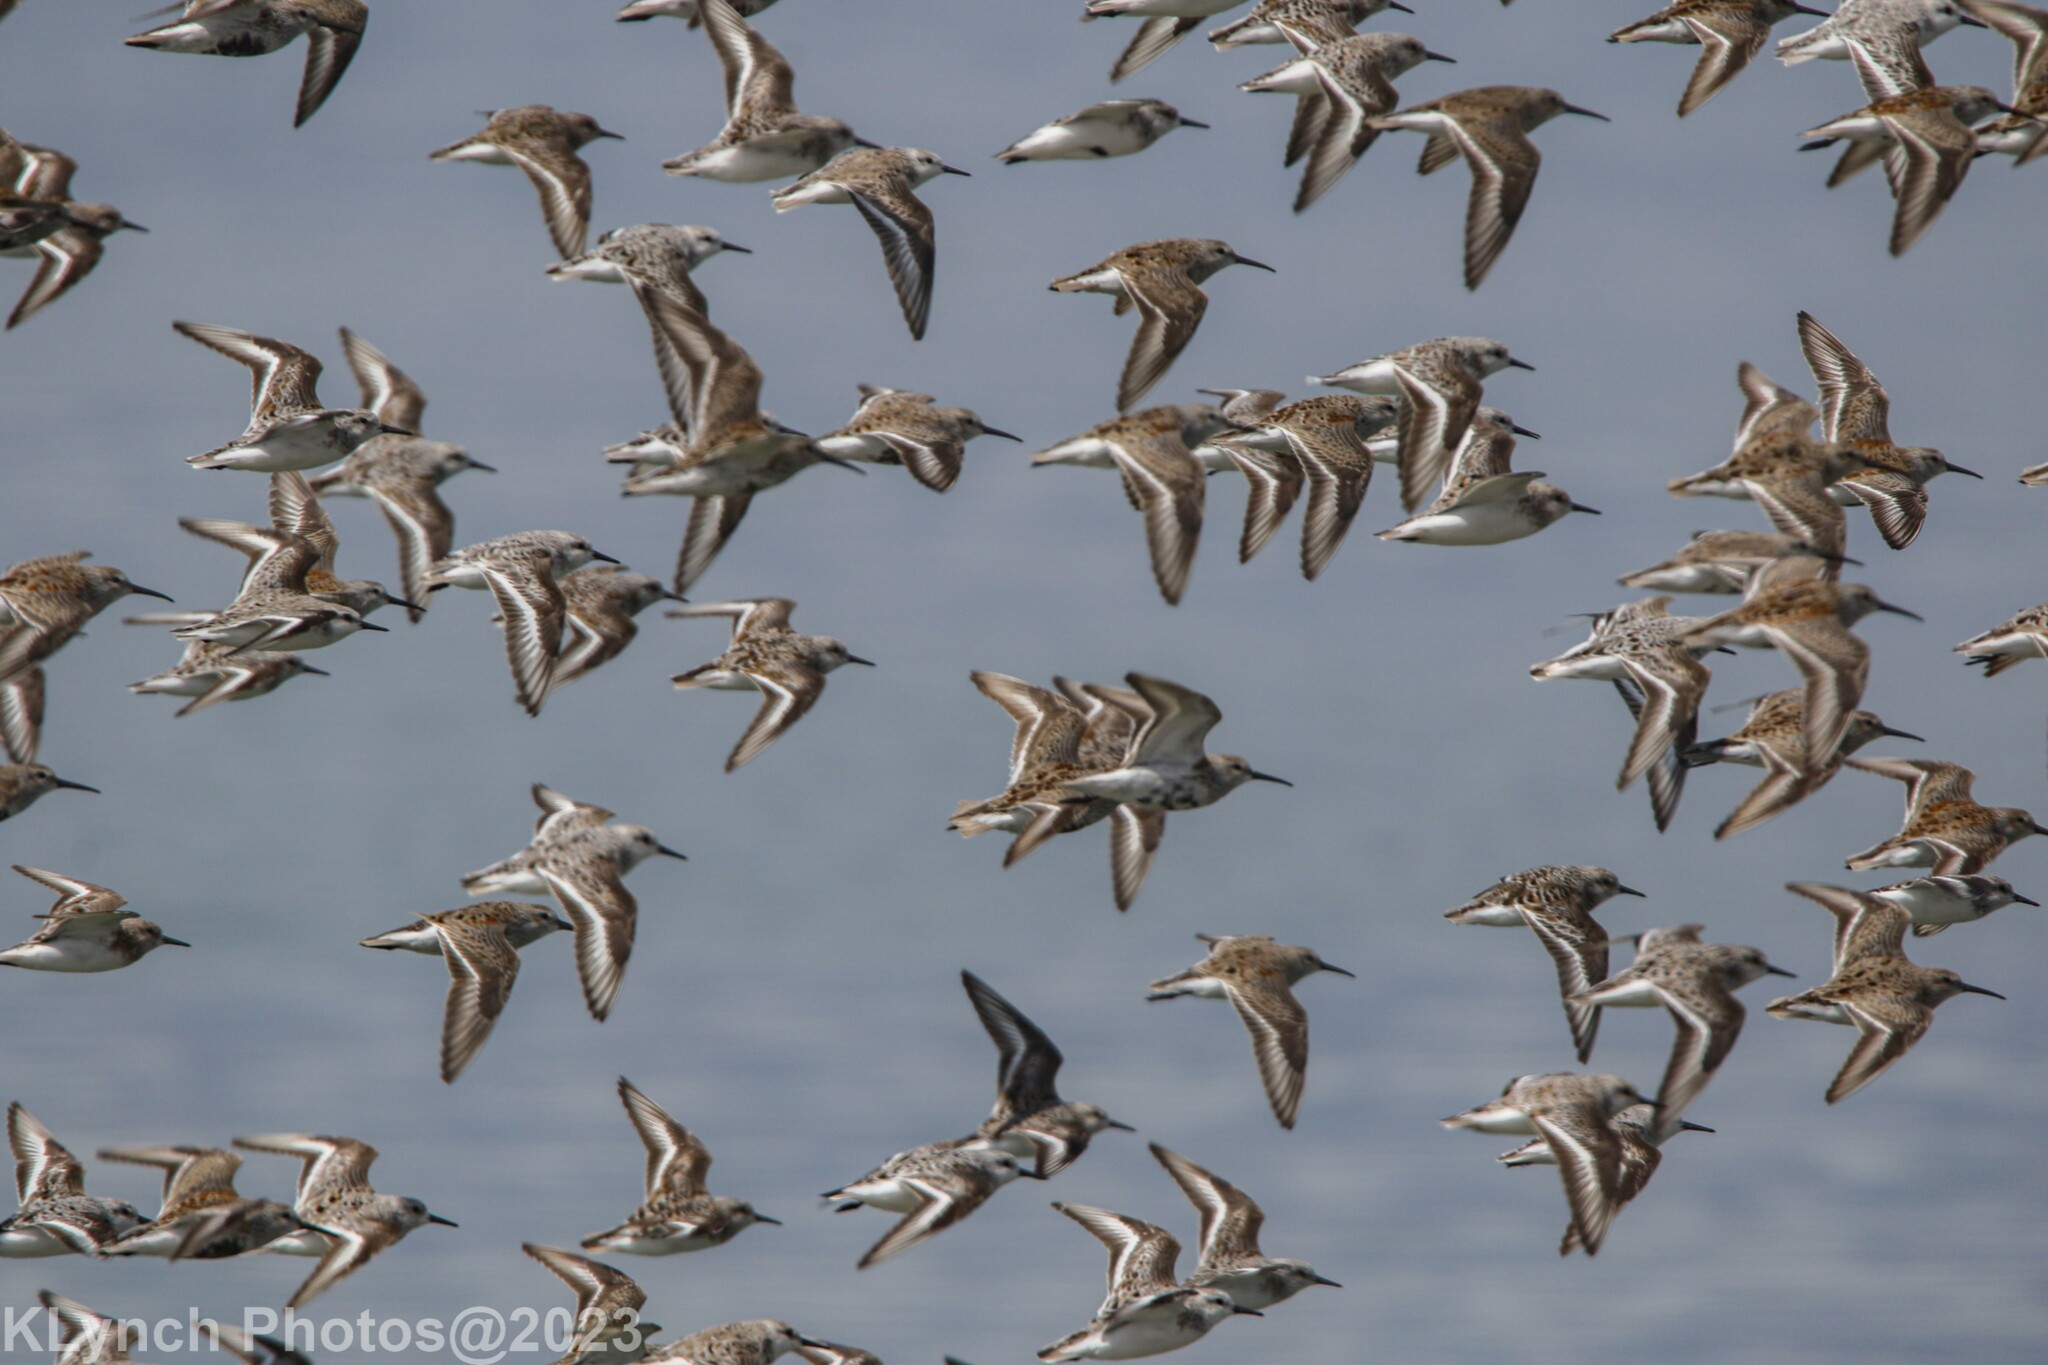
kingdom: Animalia
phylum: Chordata
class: Aves
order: Charadriiformes
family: Scolopacidae
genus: Calidris
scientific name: Calidris pusilla
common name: Semipalmated sandpiper
